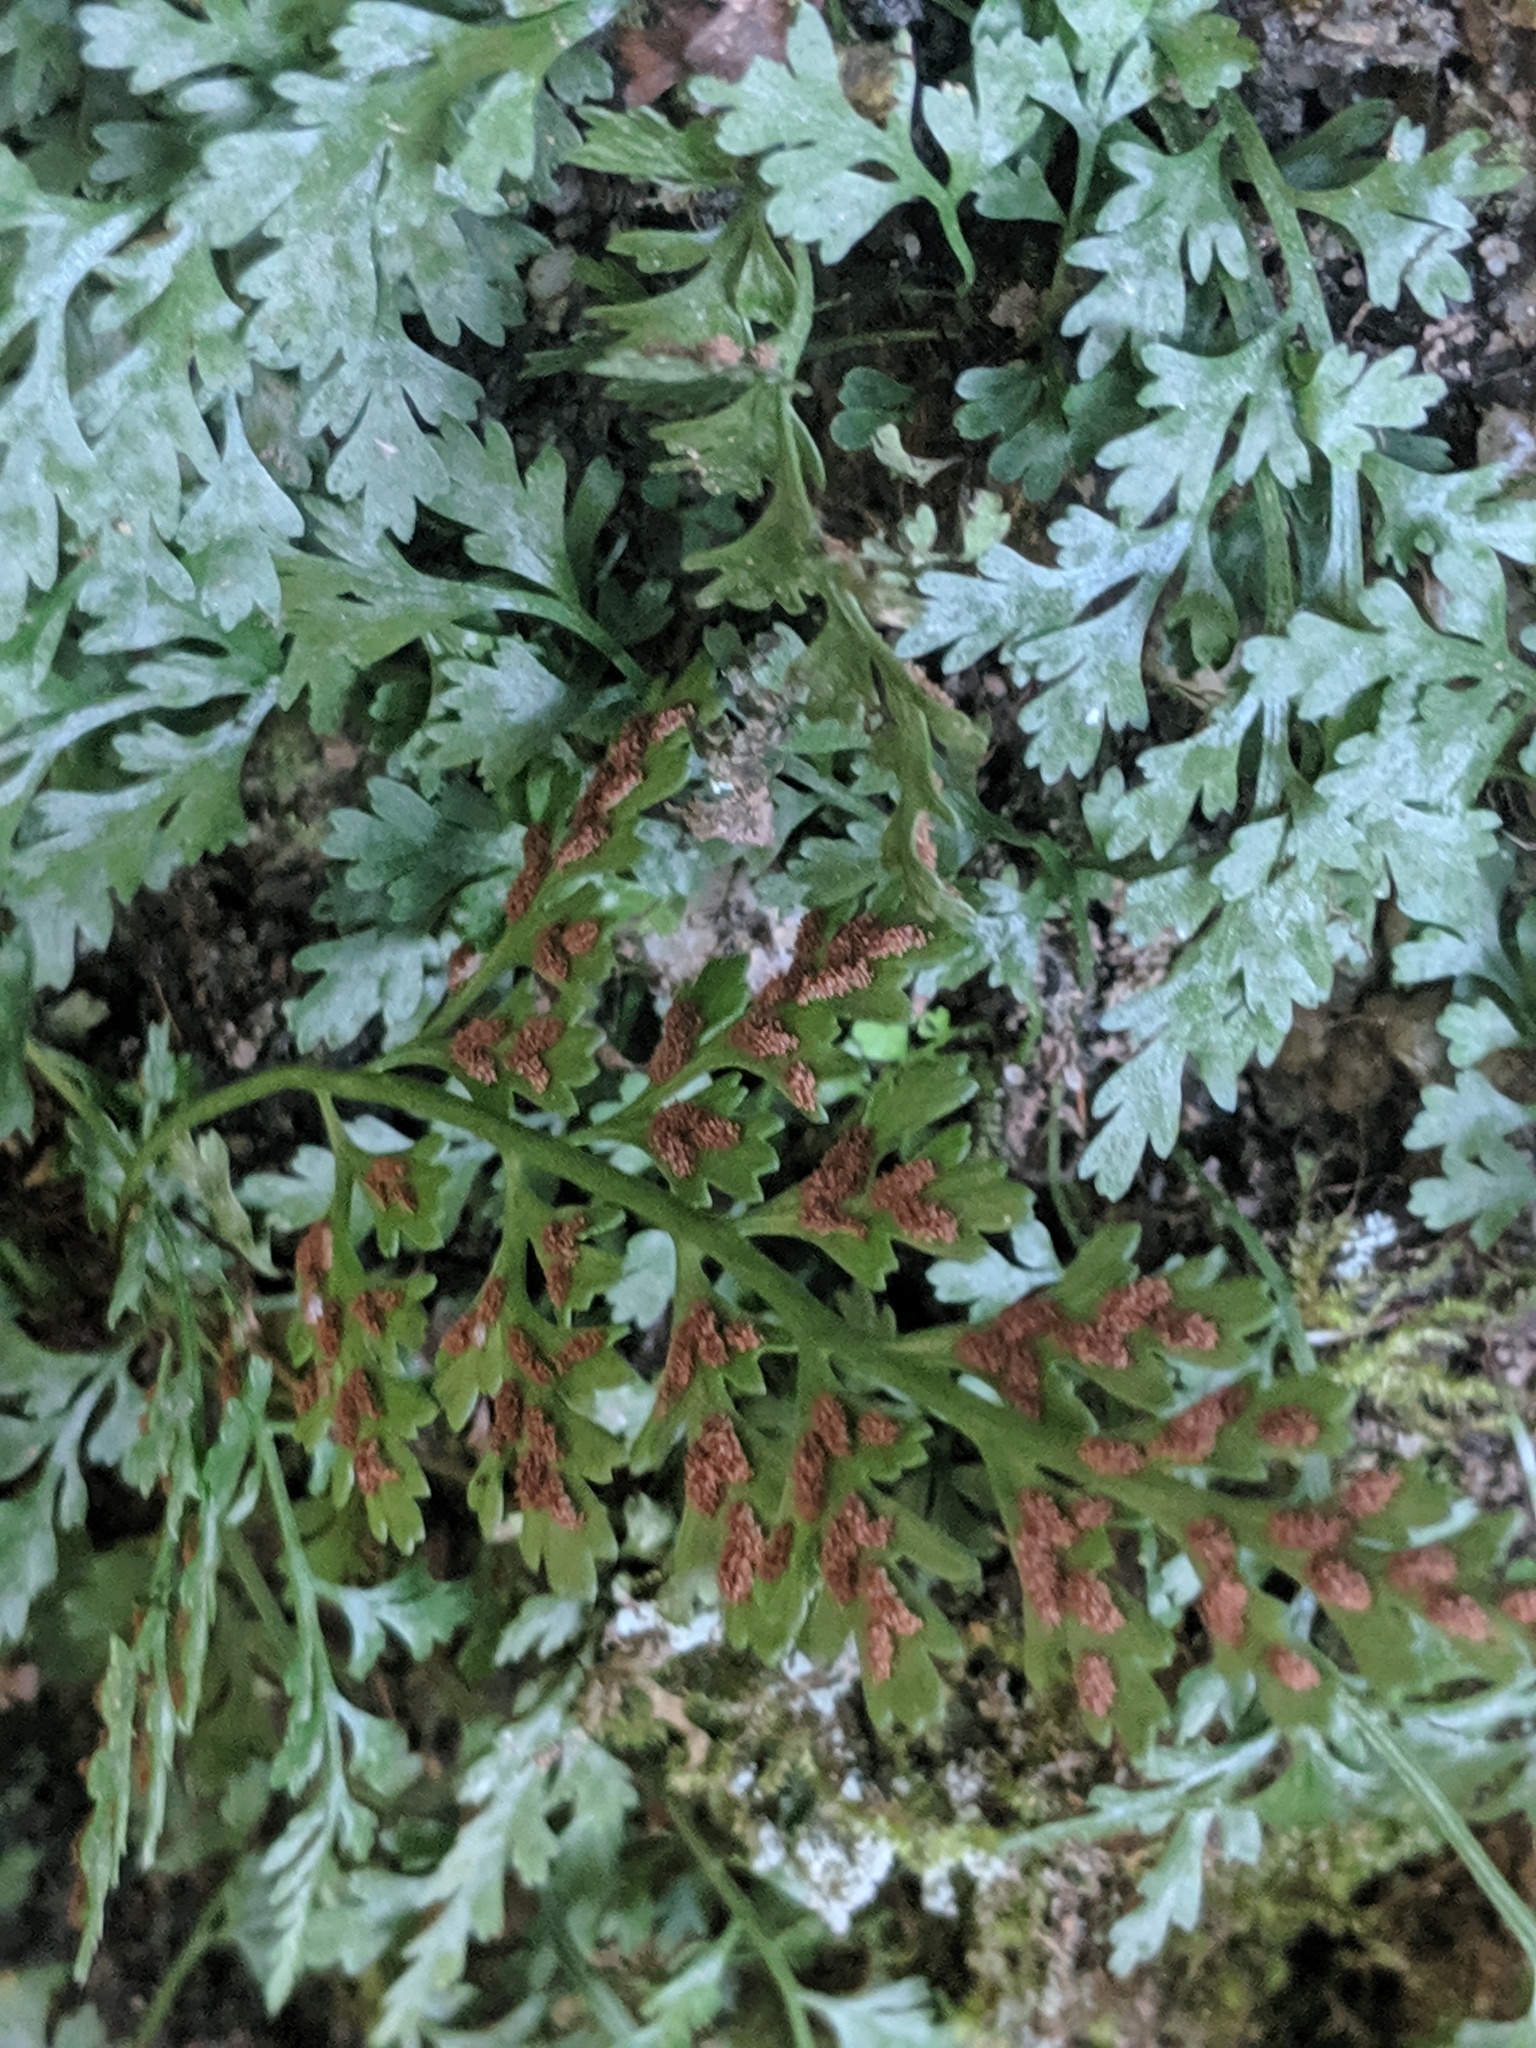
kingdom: Plantae
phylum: Tracheophyta
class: Polypodiopsida
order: Polypodiales
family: Aspleniaceae
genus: Asplenium
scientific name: Asplenium montanum
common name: Mountain spleenwort
